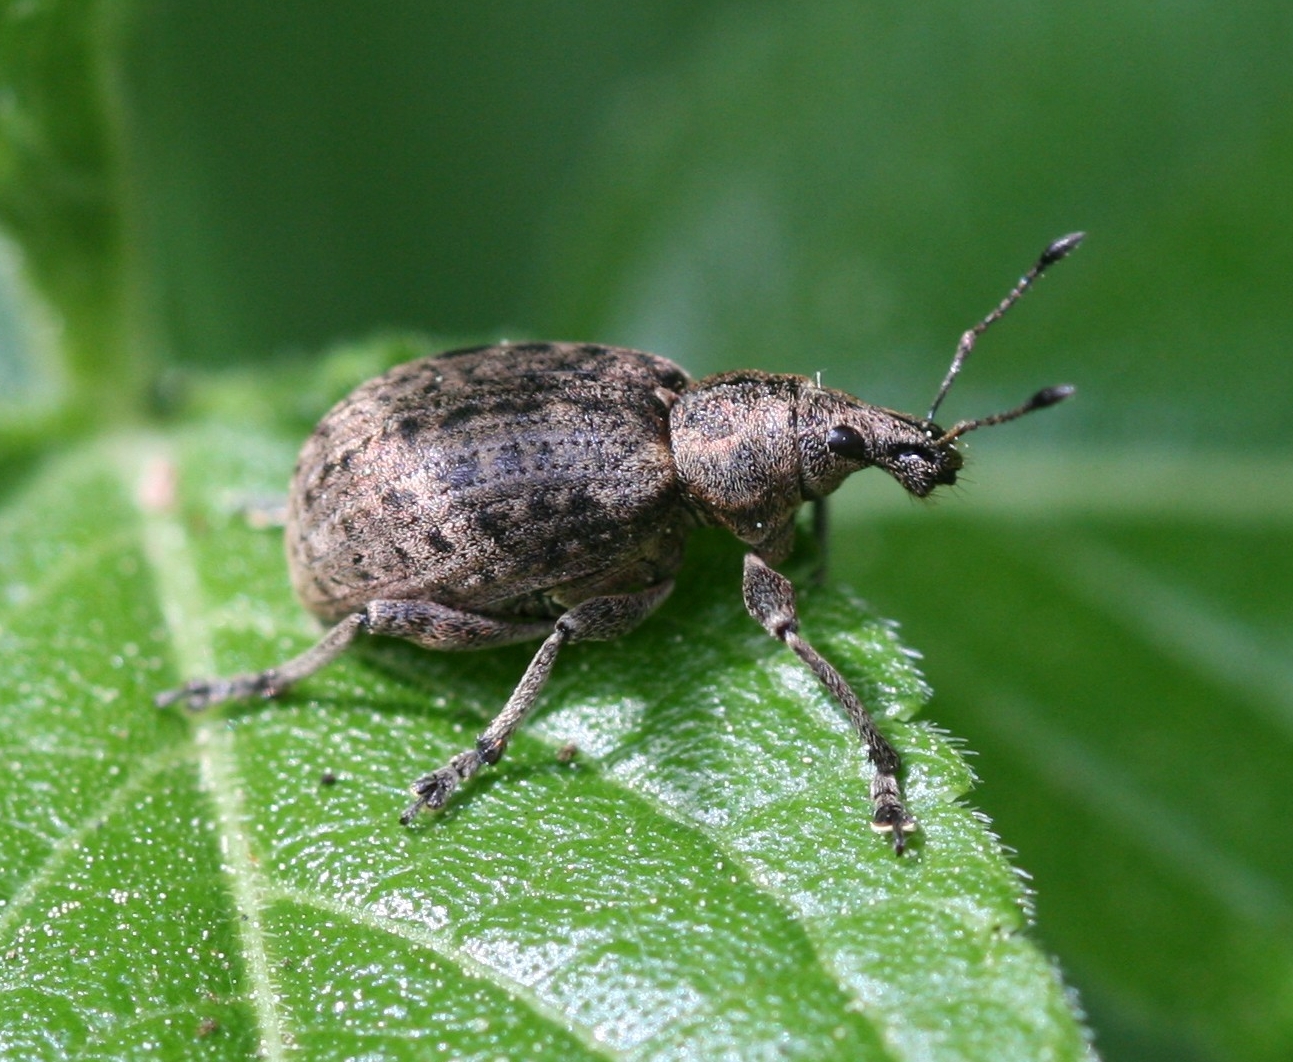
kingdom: Animalia
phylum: Arthropoda
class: Insecta
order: Coleoptera
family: Curculionidae
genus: Liophloeus
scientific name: Liophloeus tessulatus
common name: Weevil
